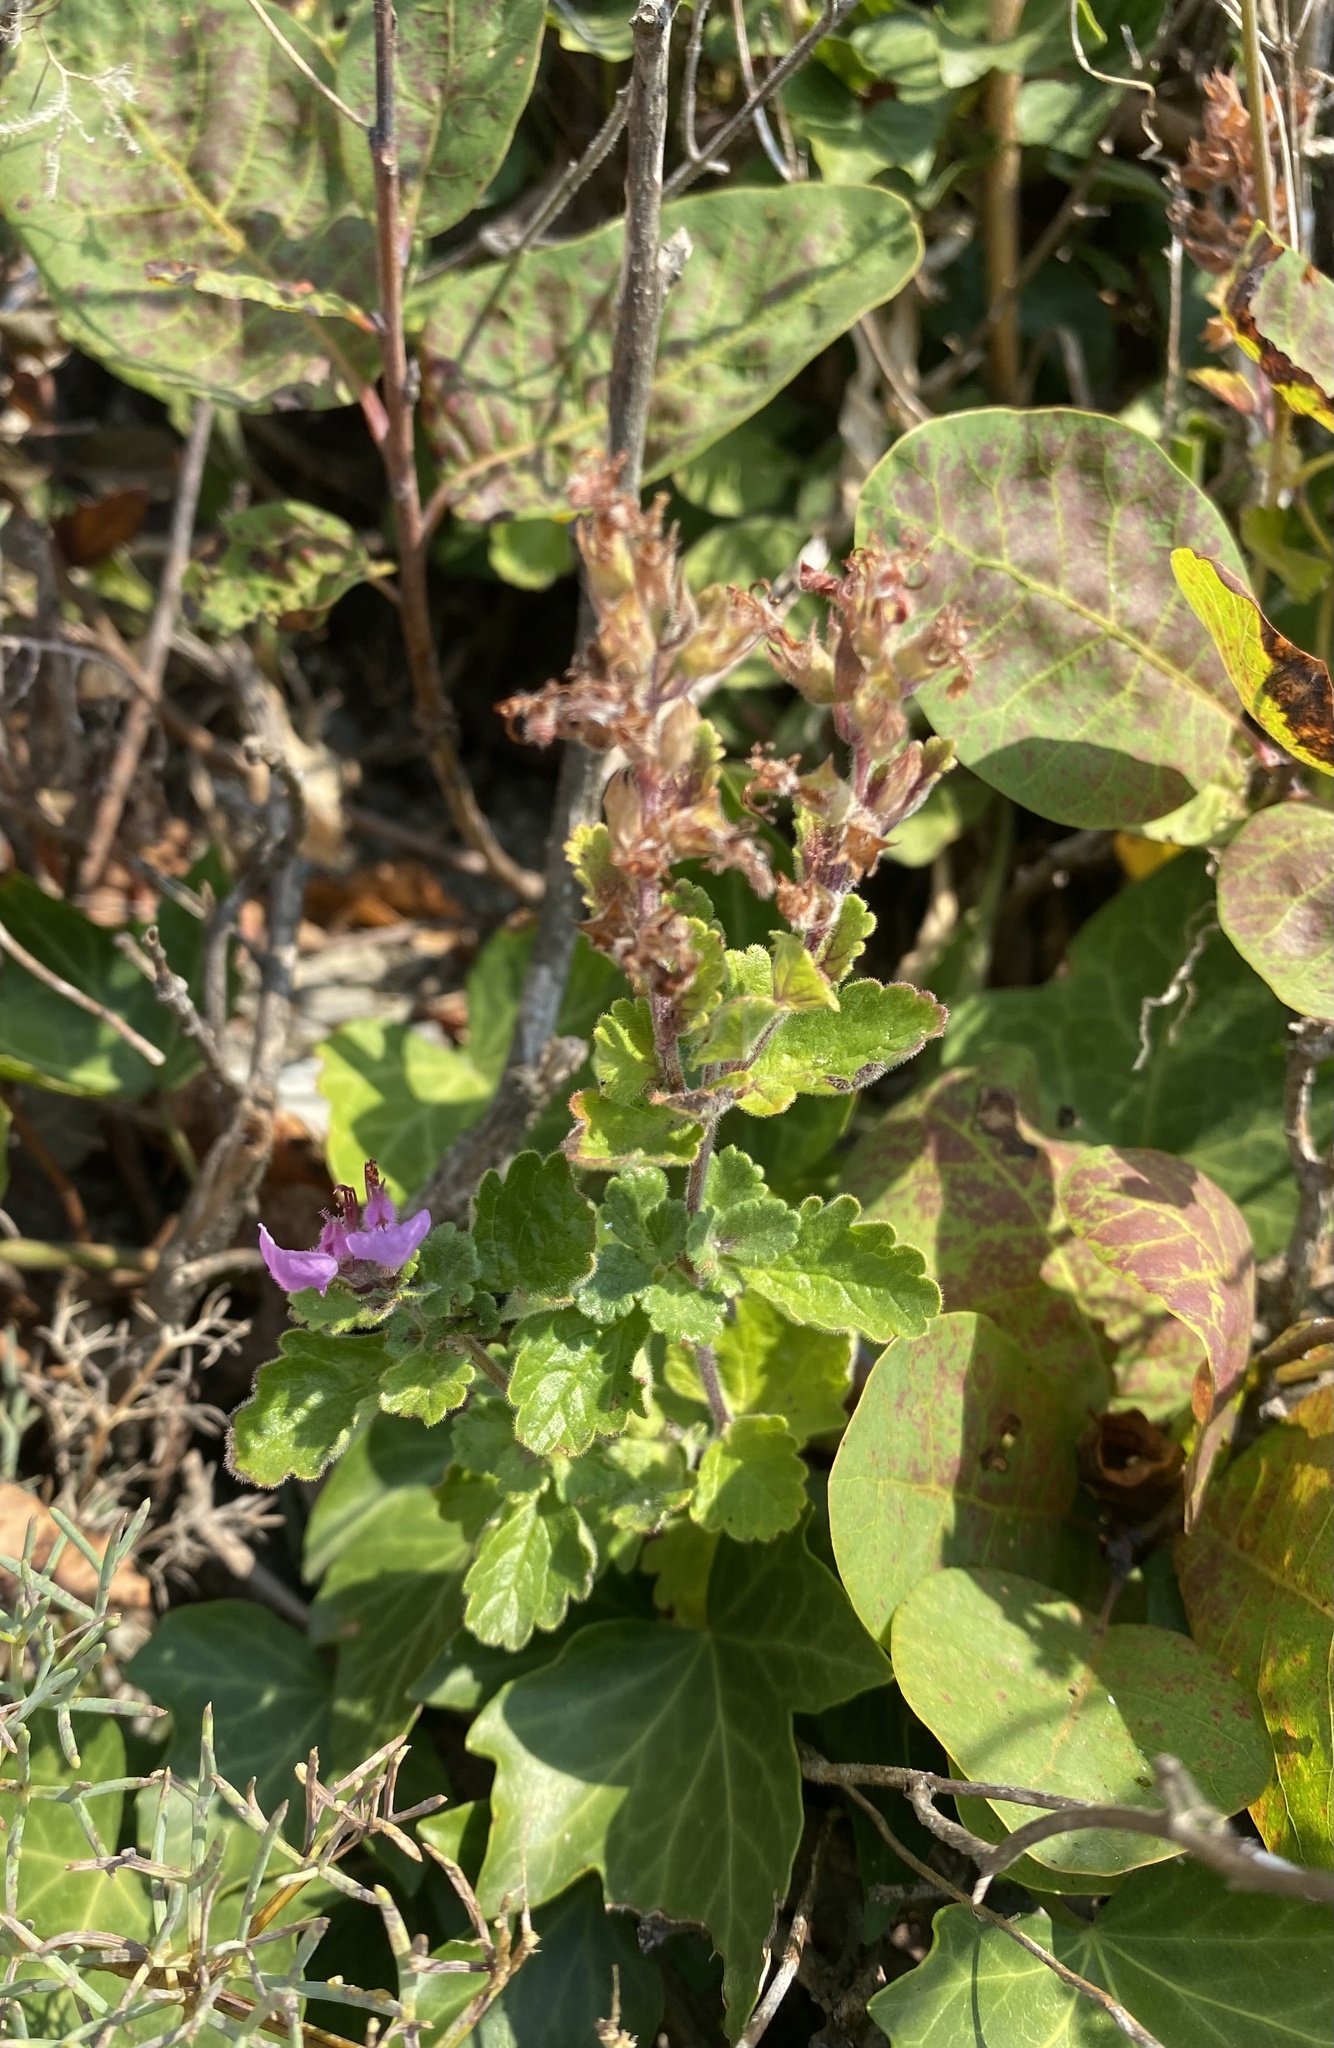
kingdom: Plantae
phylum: Tracheophyta
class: Magnoliopsida
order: Lamiales
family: Lamiaceae
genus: Teucrium
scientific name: Teucrium chamaedrys
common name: Wall germander
